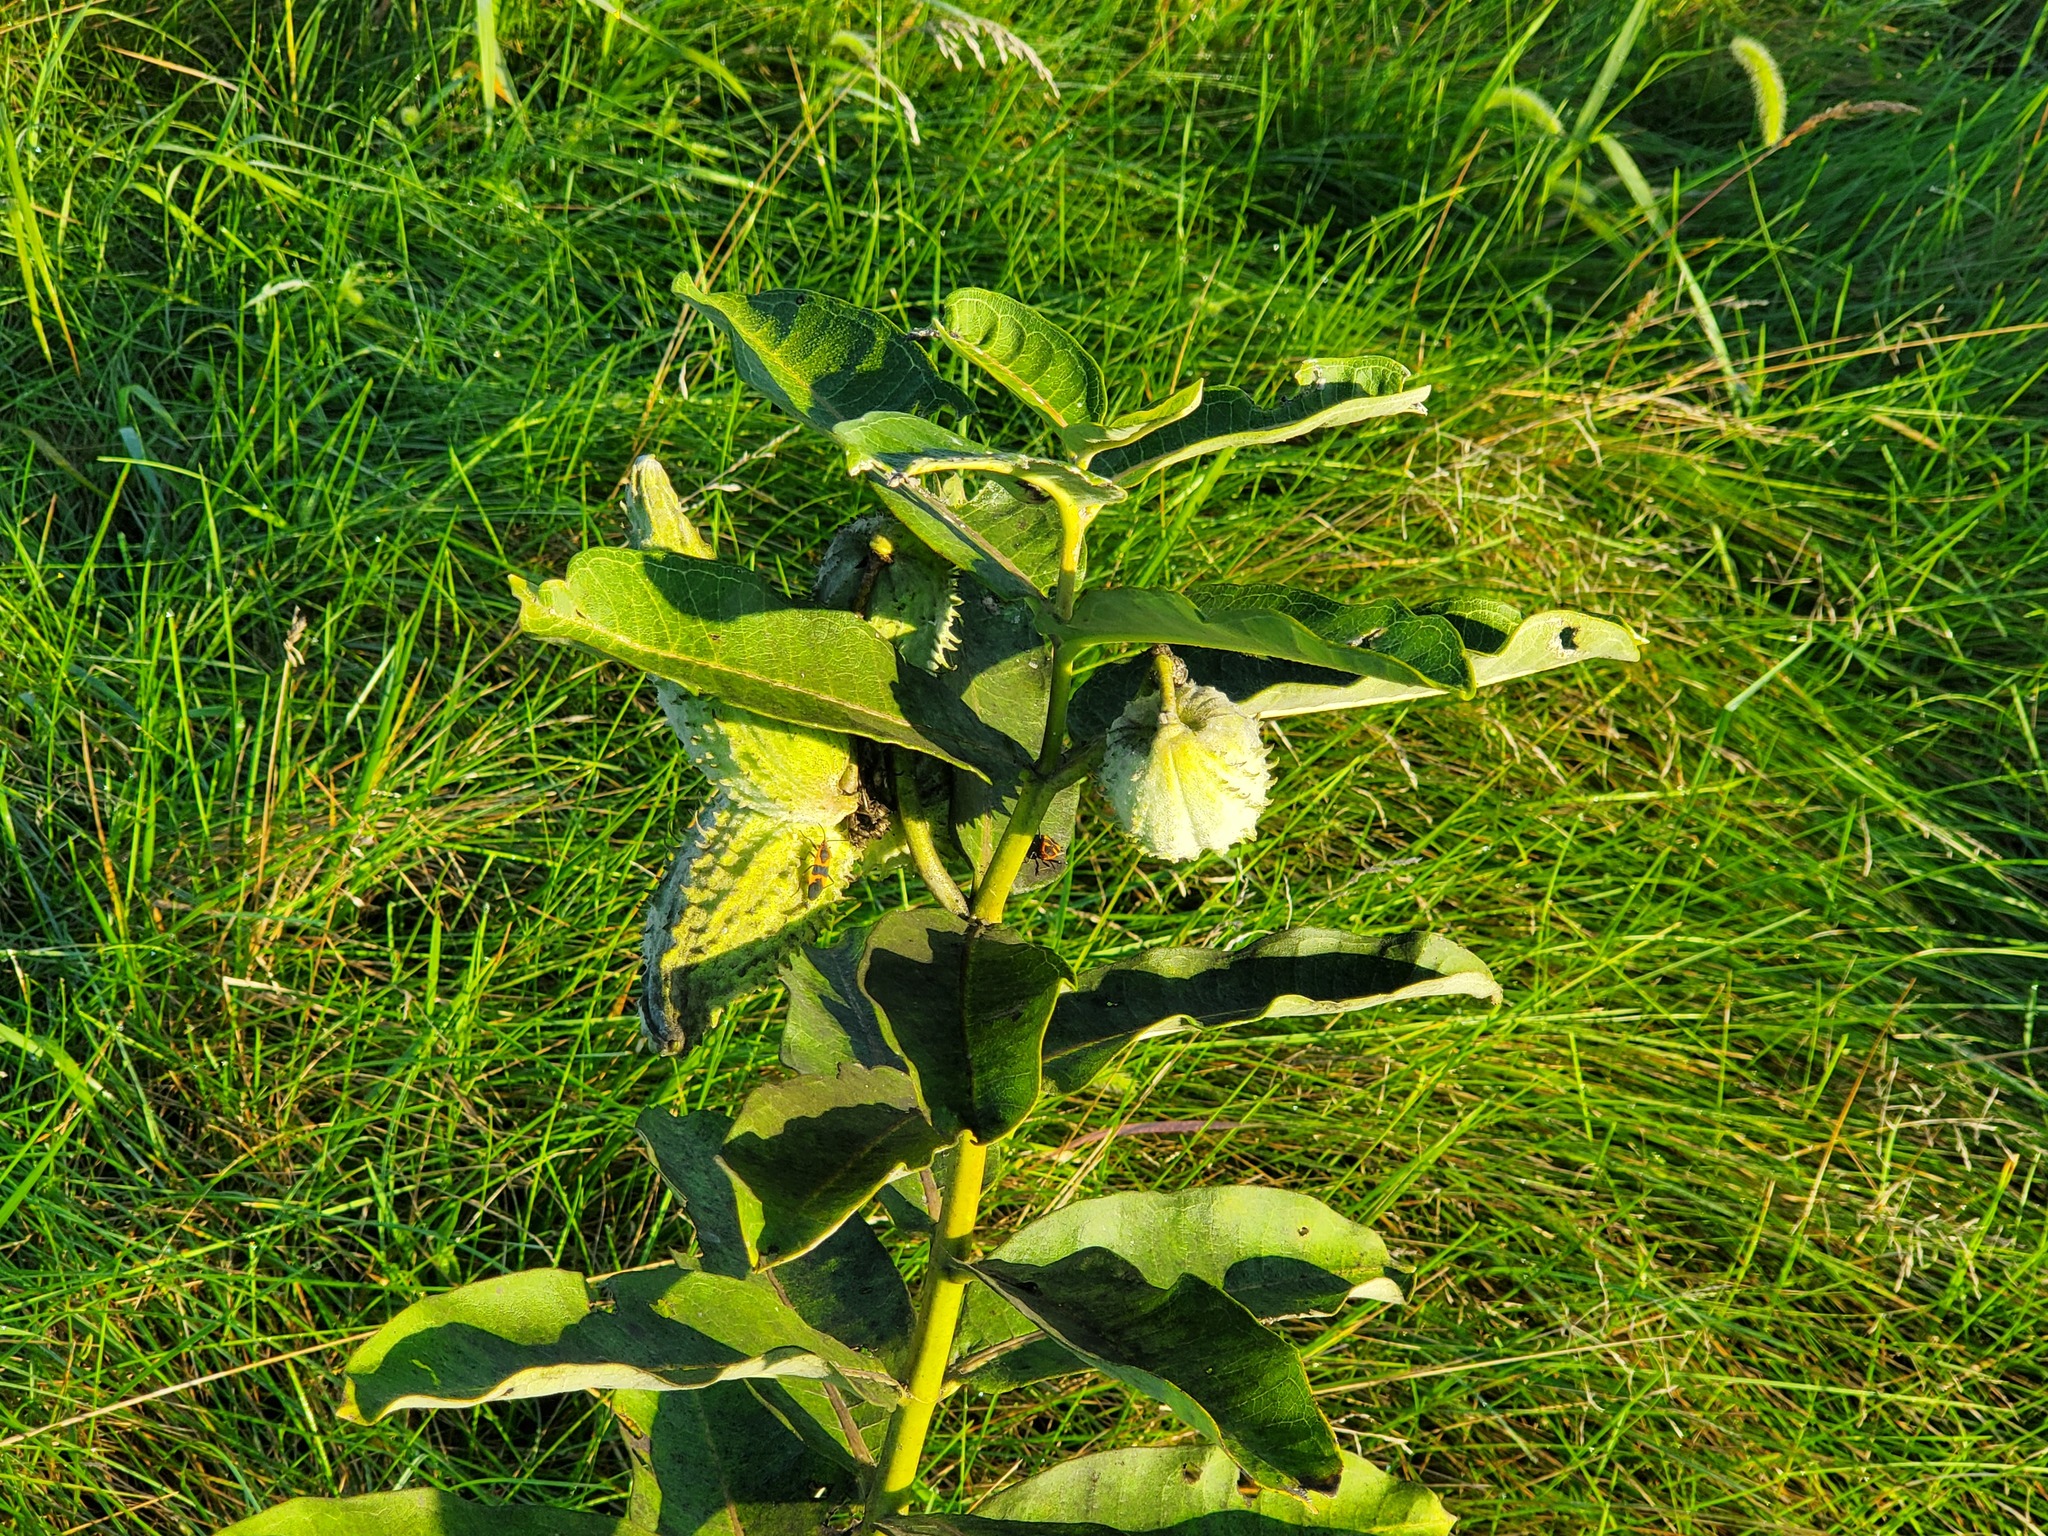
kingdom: Animalia
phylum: Arthropoda
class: Insecta
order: Hemiptera
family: Lygaeidae
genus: Oncopeltus
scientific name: Oncopeltus fasciatus
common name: Large milkweed bug
